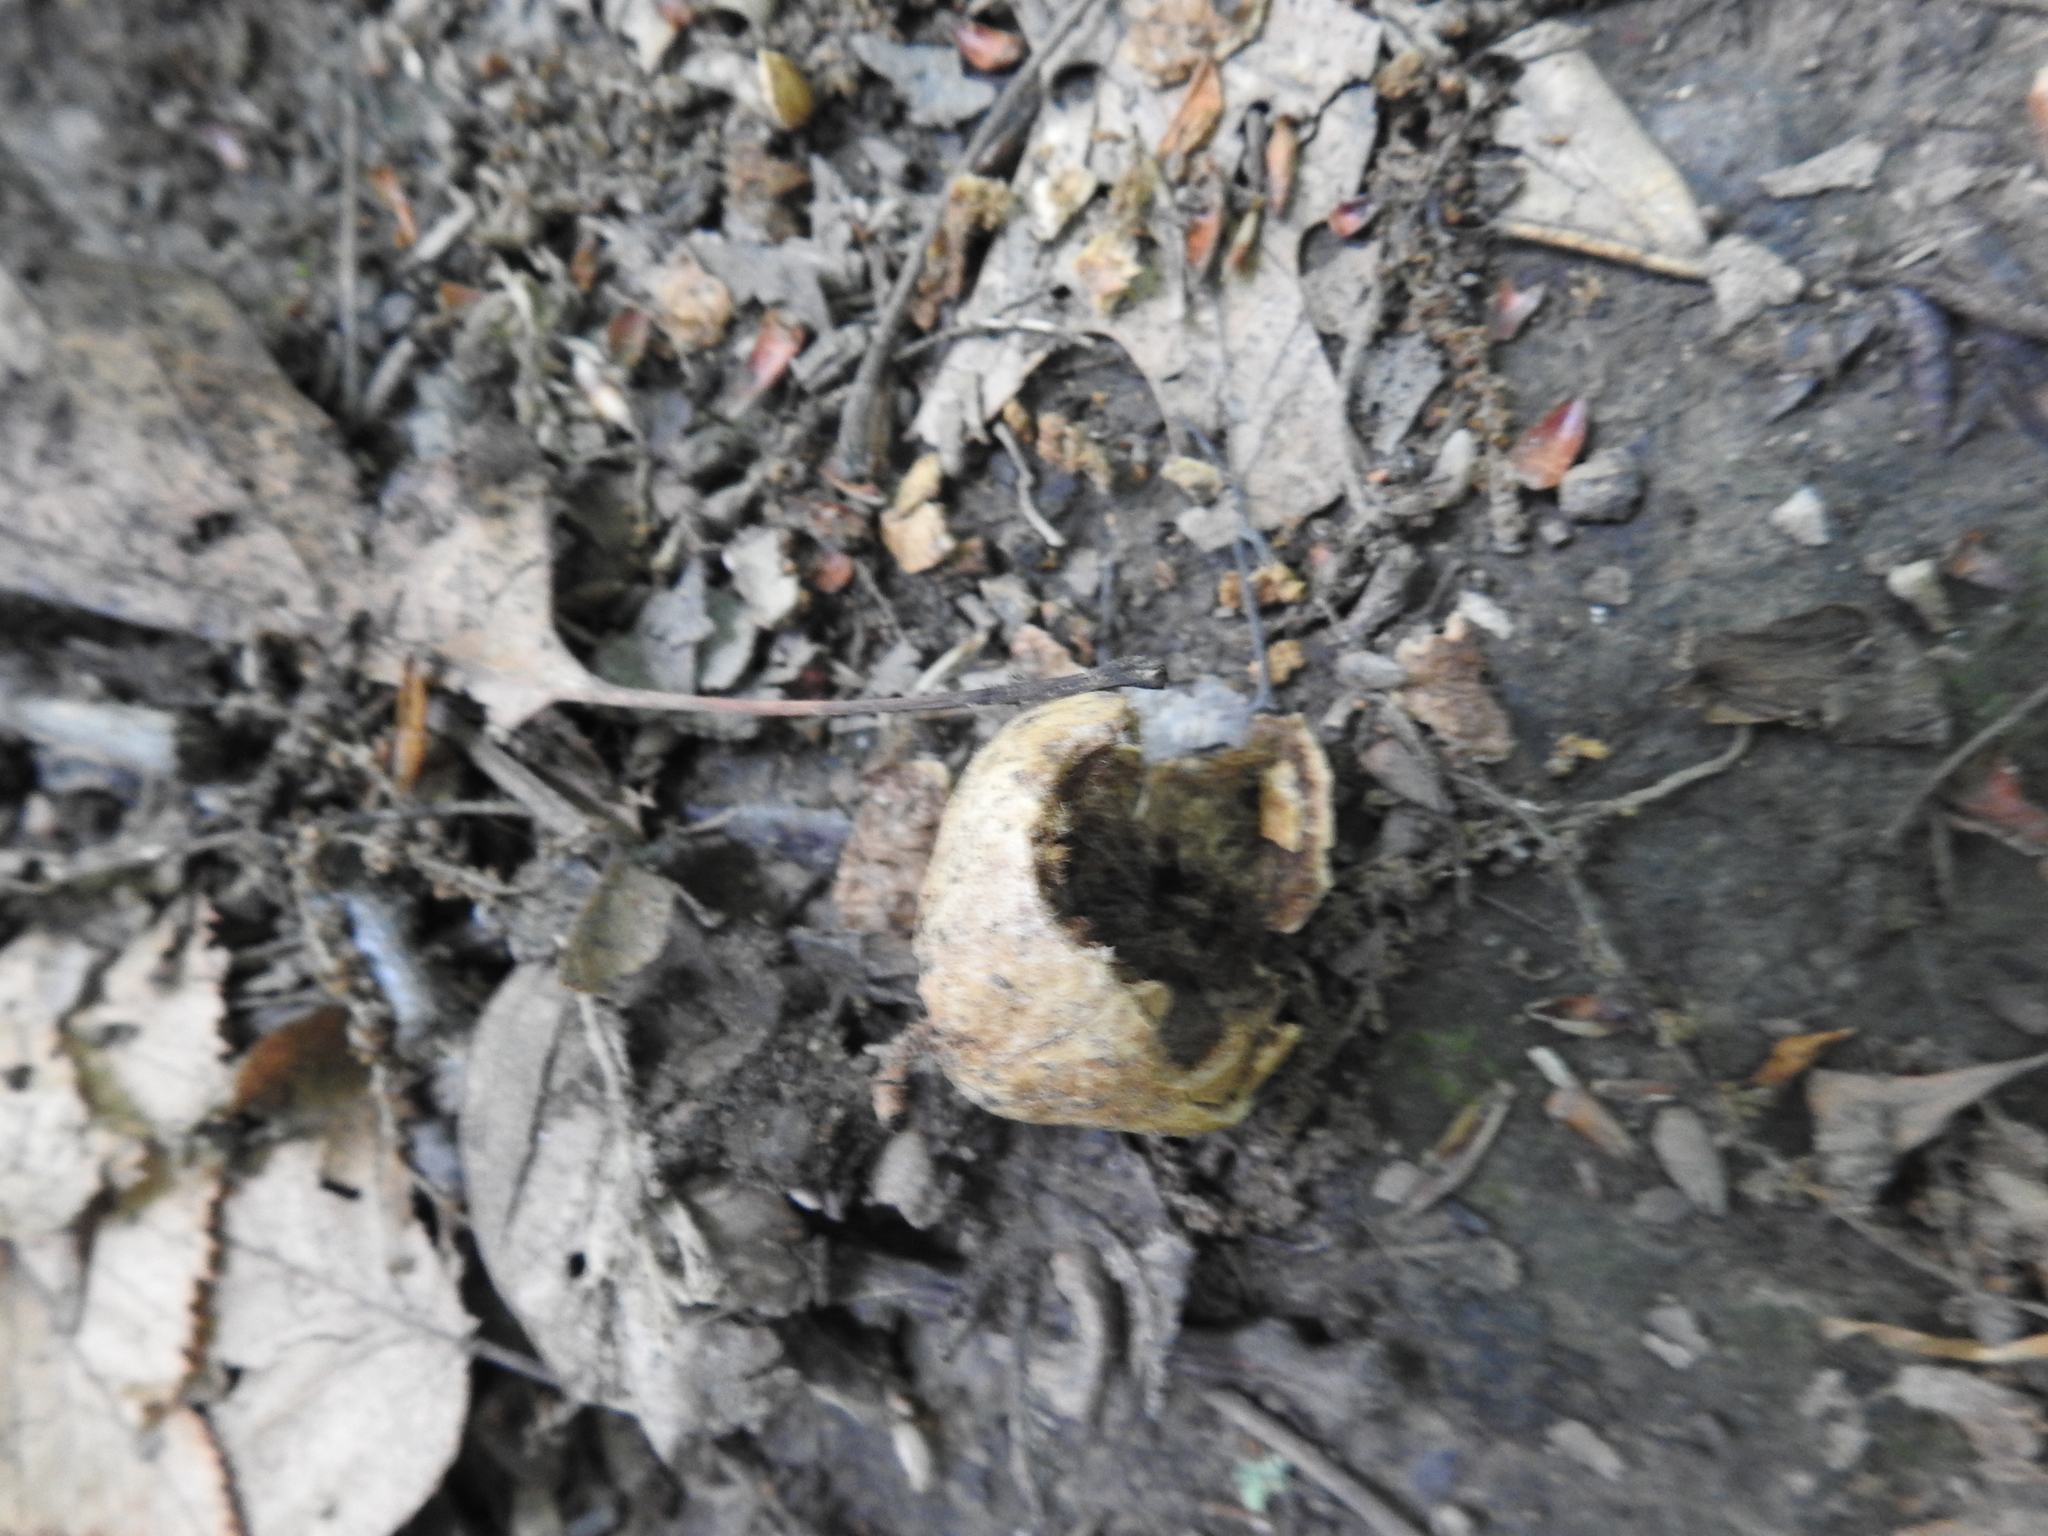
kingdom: Animalia
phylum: Arthropoda
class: Insecta
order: Hymenoptera
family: Cynipidae
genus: Amphibolips
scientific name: Amphibolips
